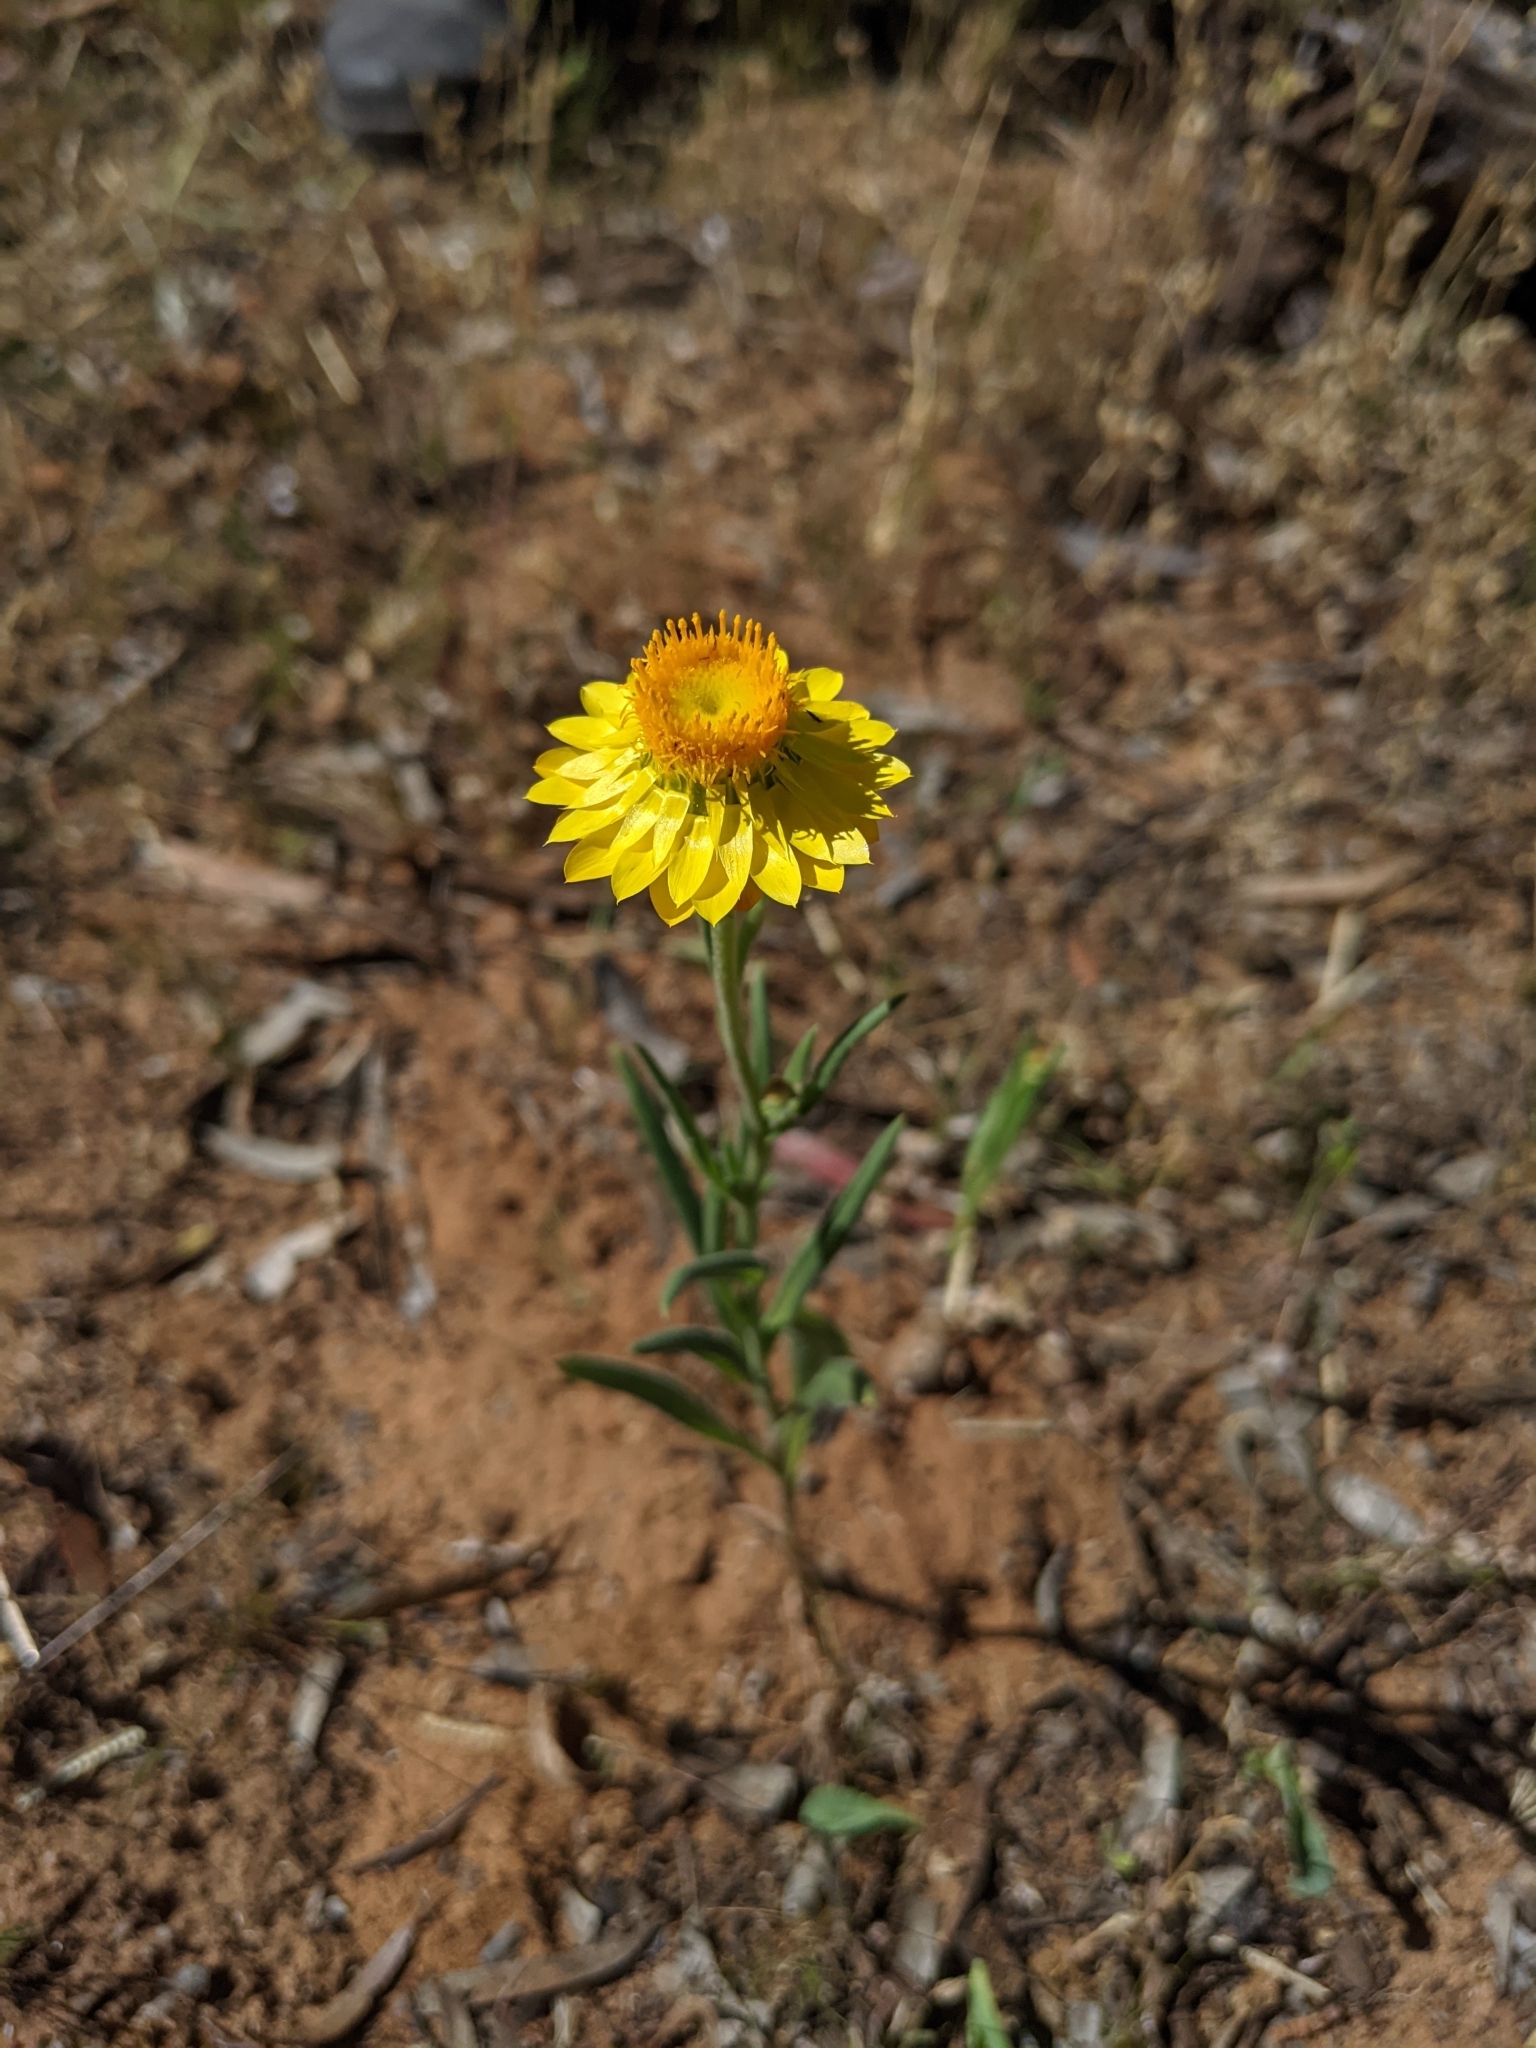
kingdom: Plantae
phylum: Tracheophyta
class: Magnoliopsida
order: Asterales
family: Asteraceae
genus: Xerochrysum
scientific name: Xerochrysum bracteatum
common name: Bracted strawflower
